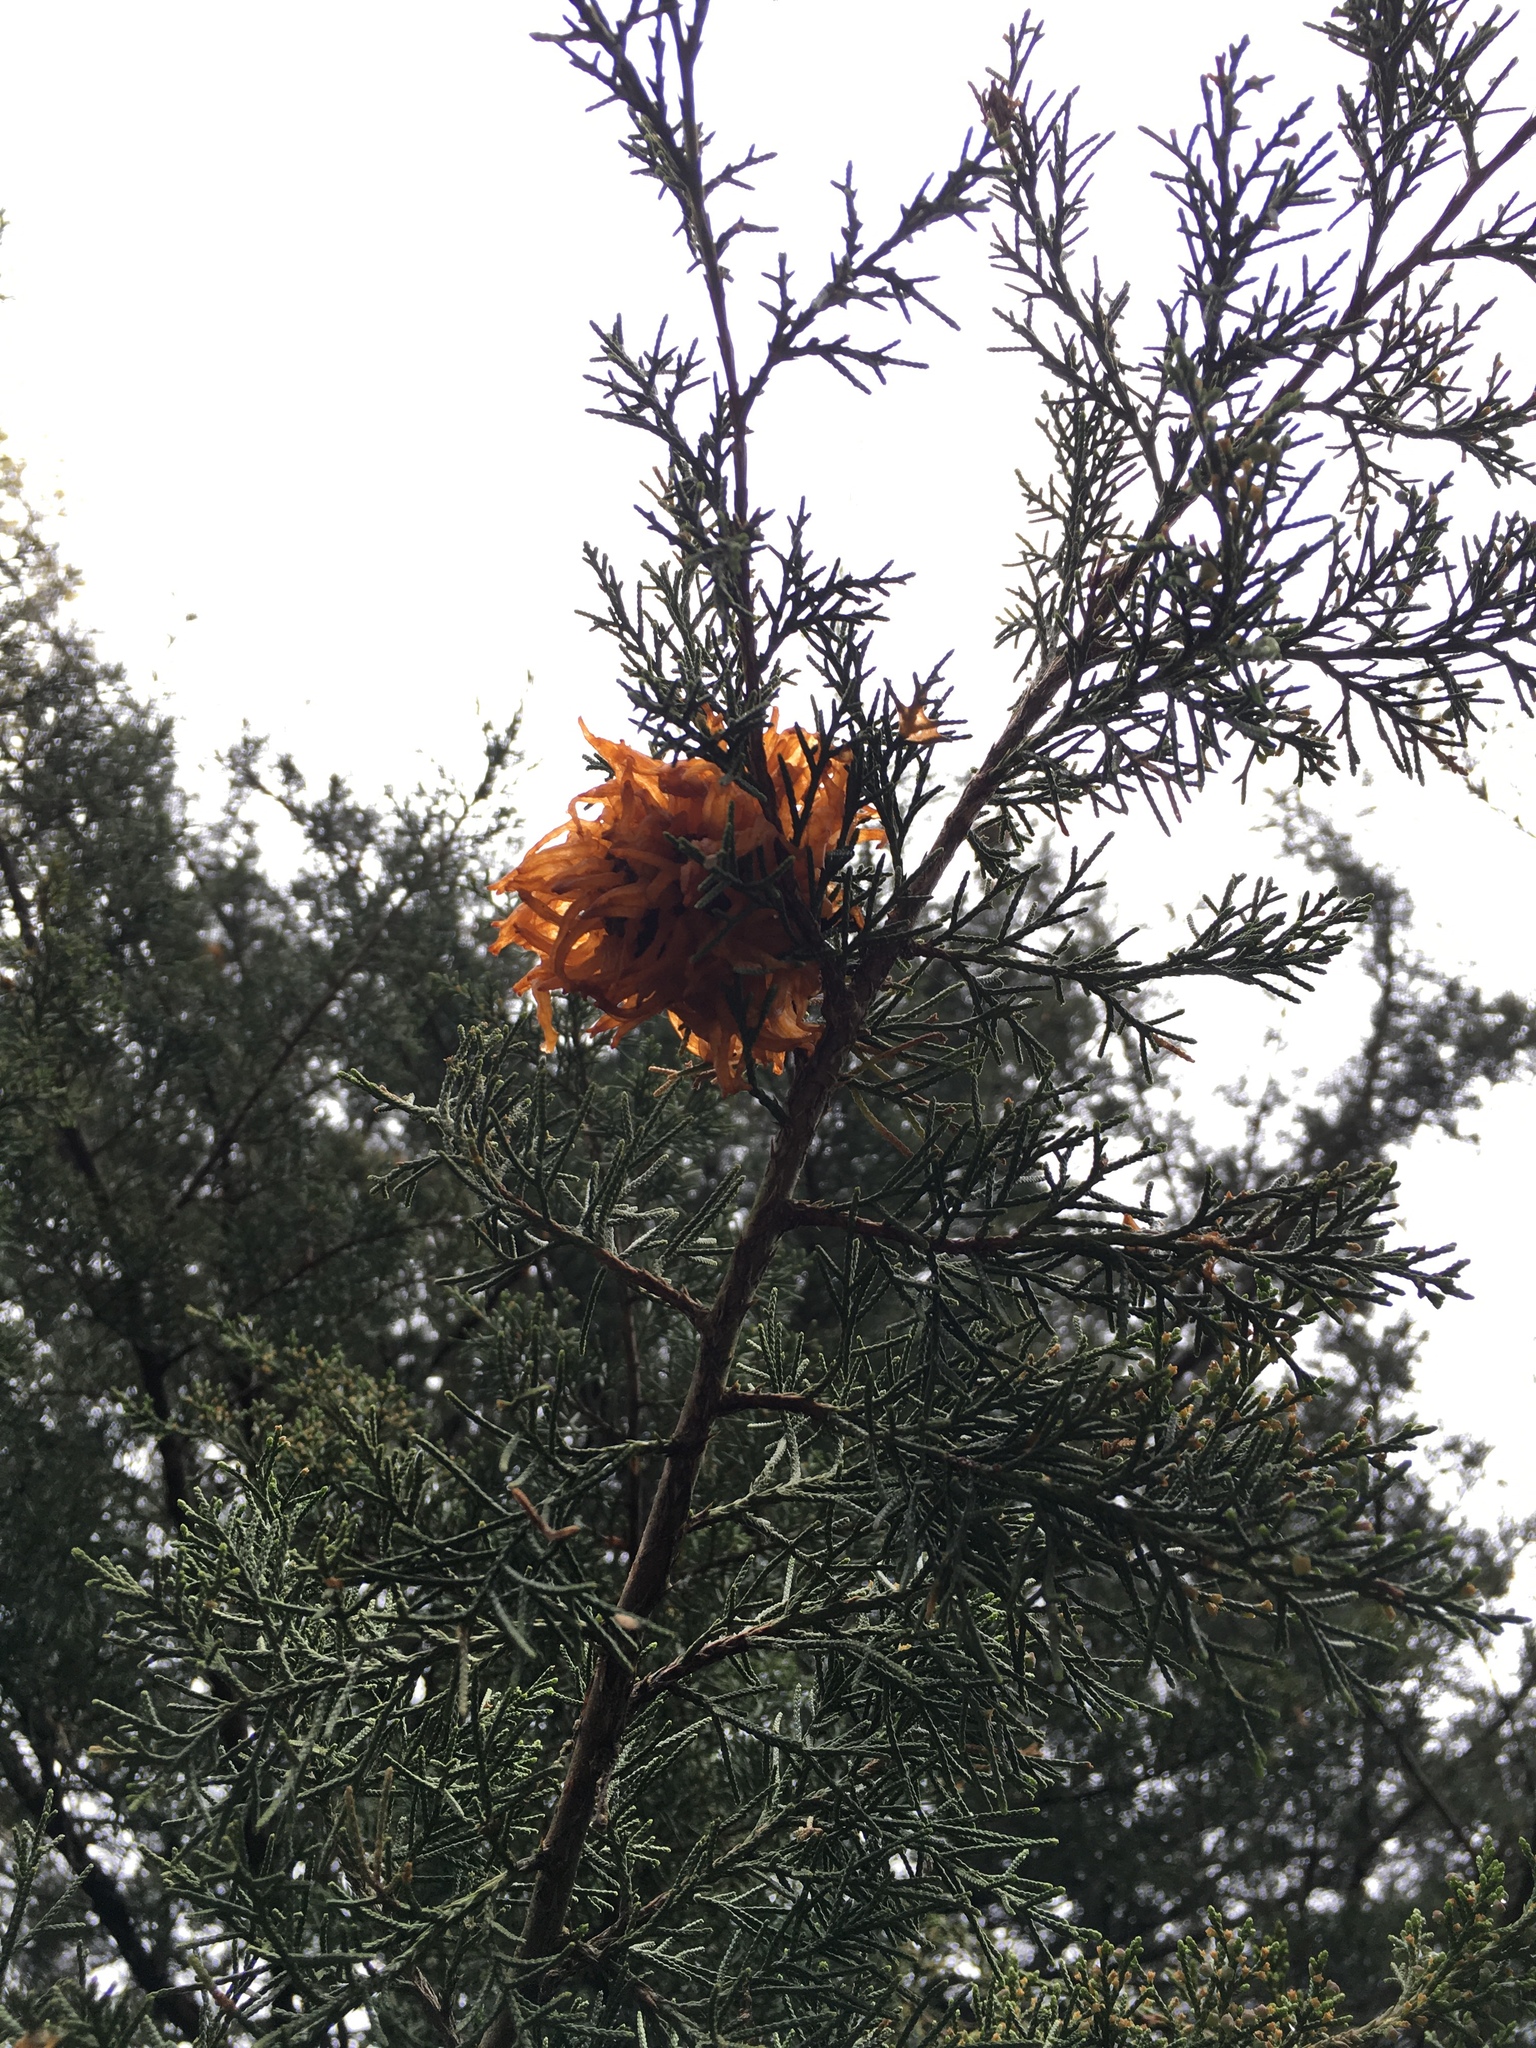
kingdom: Fungi
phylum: Basidiomycota
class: Pucciniomycetes
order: Pucciniales
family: Gymnosporangiaceae
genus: Gymnosporangium
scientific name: Gymnosporangium juniperi-virginianae
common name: Juniper-apple rust
